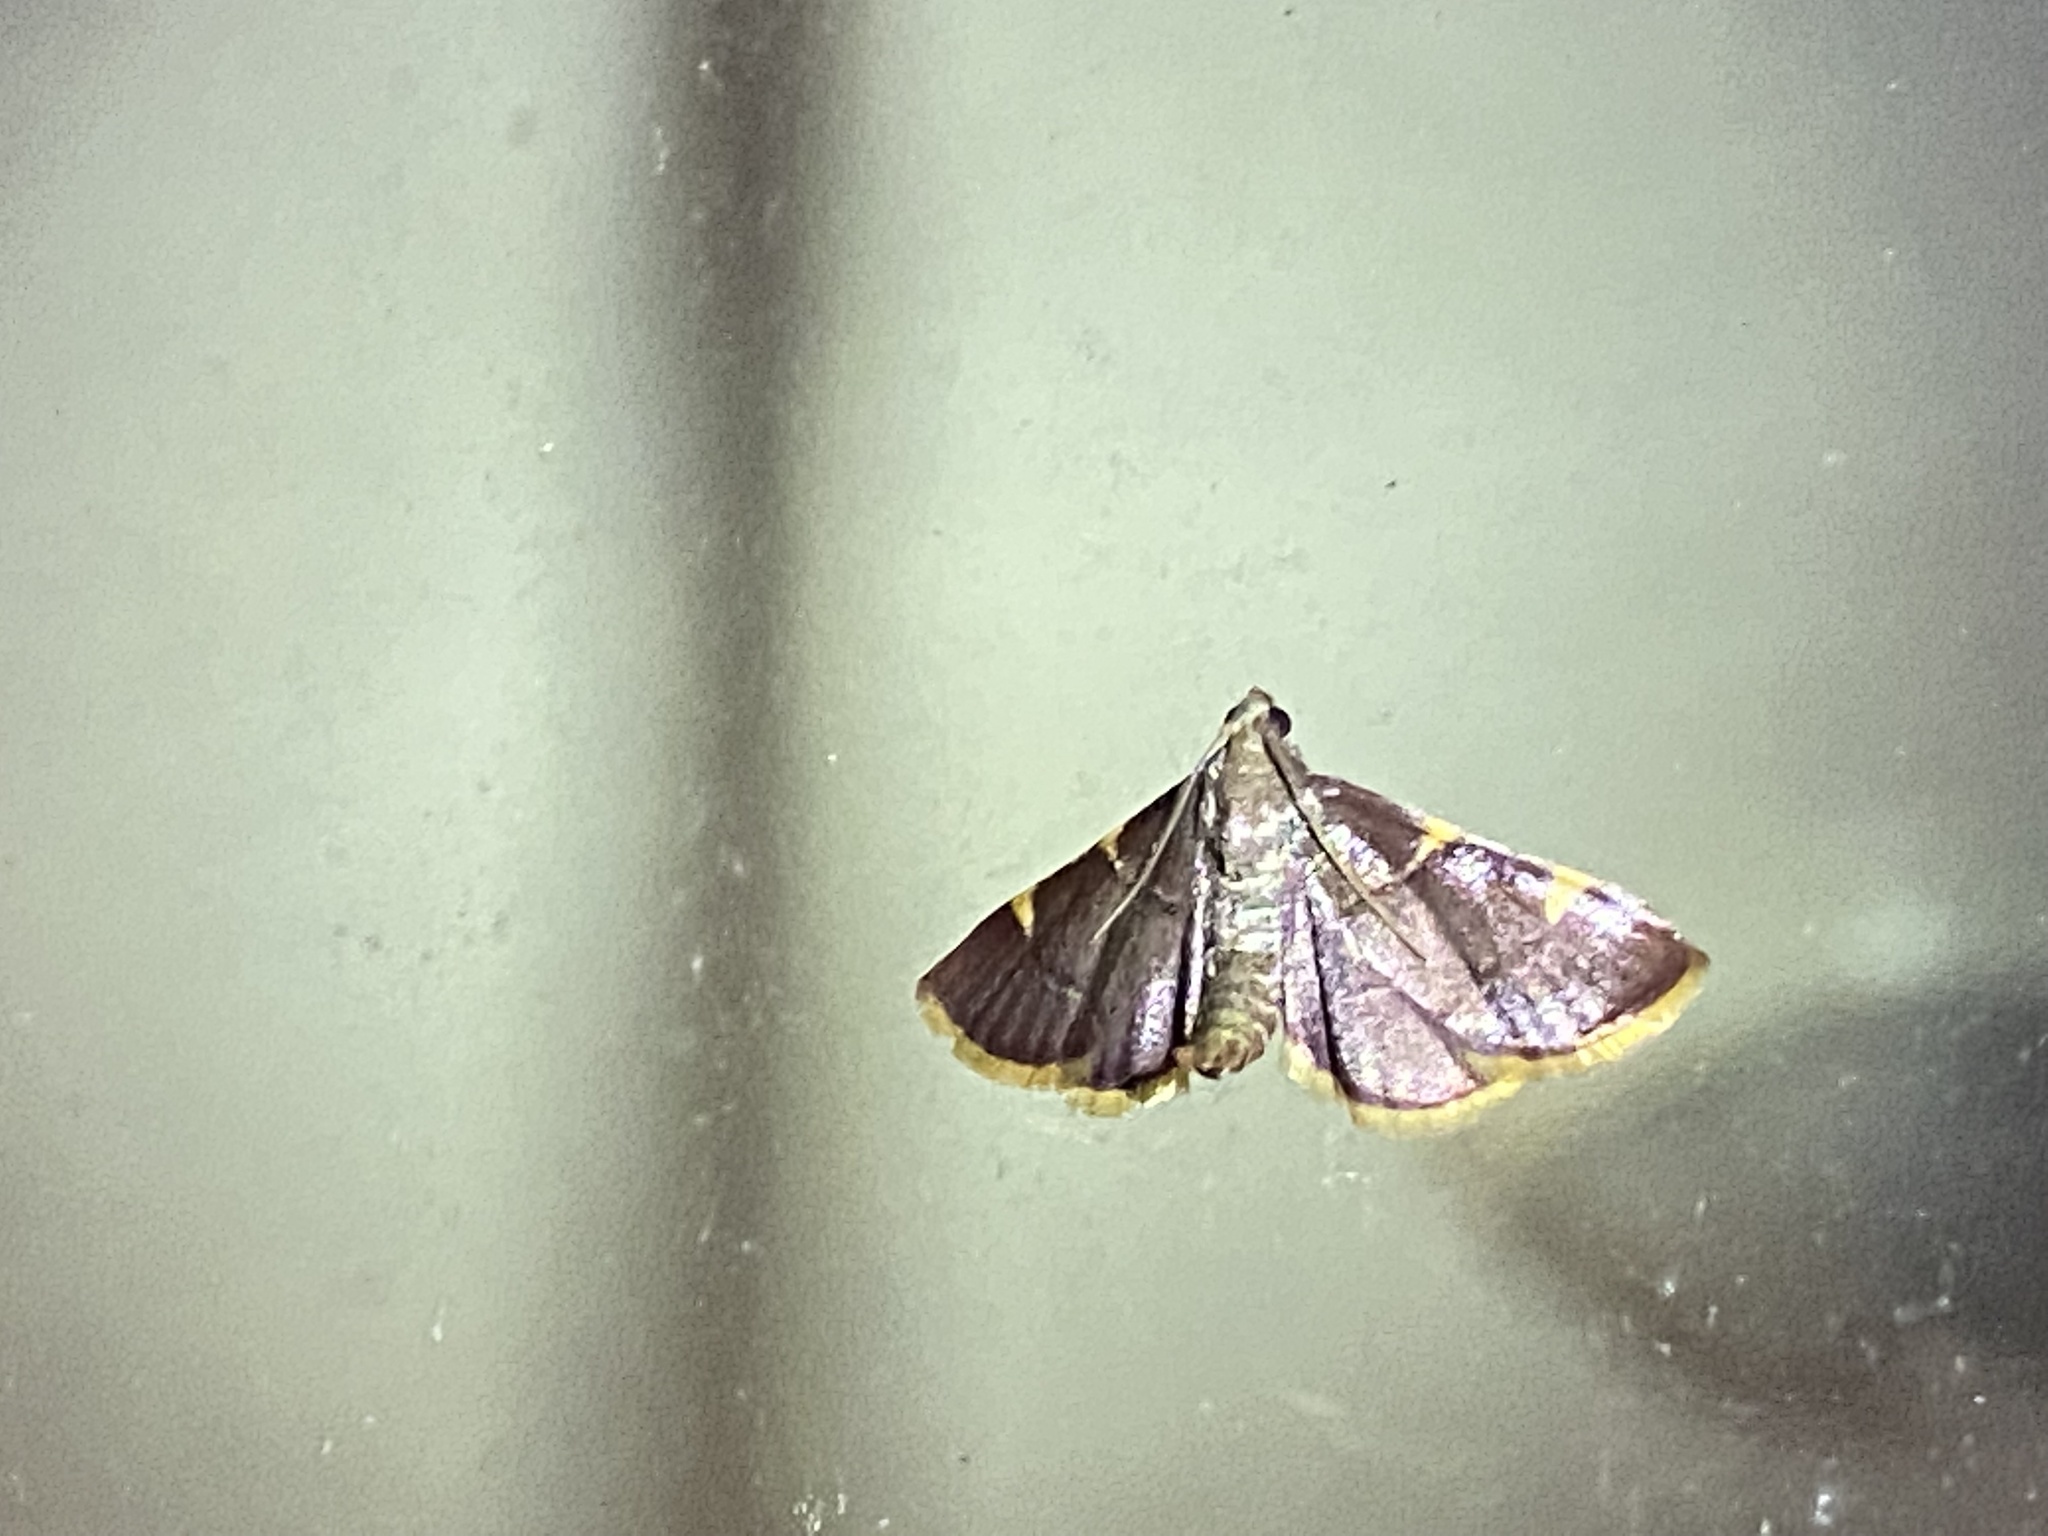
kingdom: Animalia
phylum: Arthropoda
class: Insecta
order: Lepidoptera
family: Pyralidae
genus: Hypsopygia
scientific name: Hypsopygia olinalis
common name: Yellow-fringed dolichomia moth
